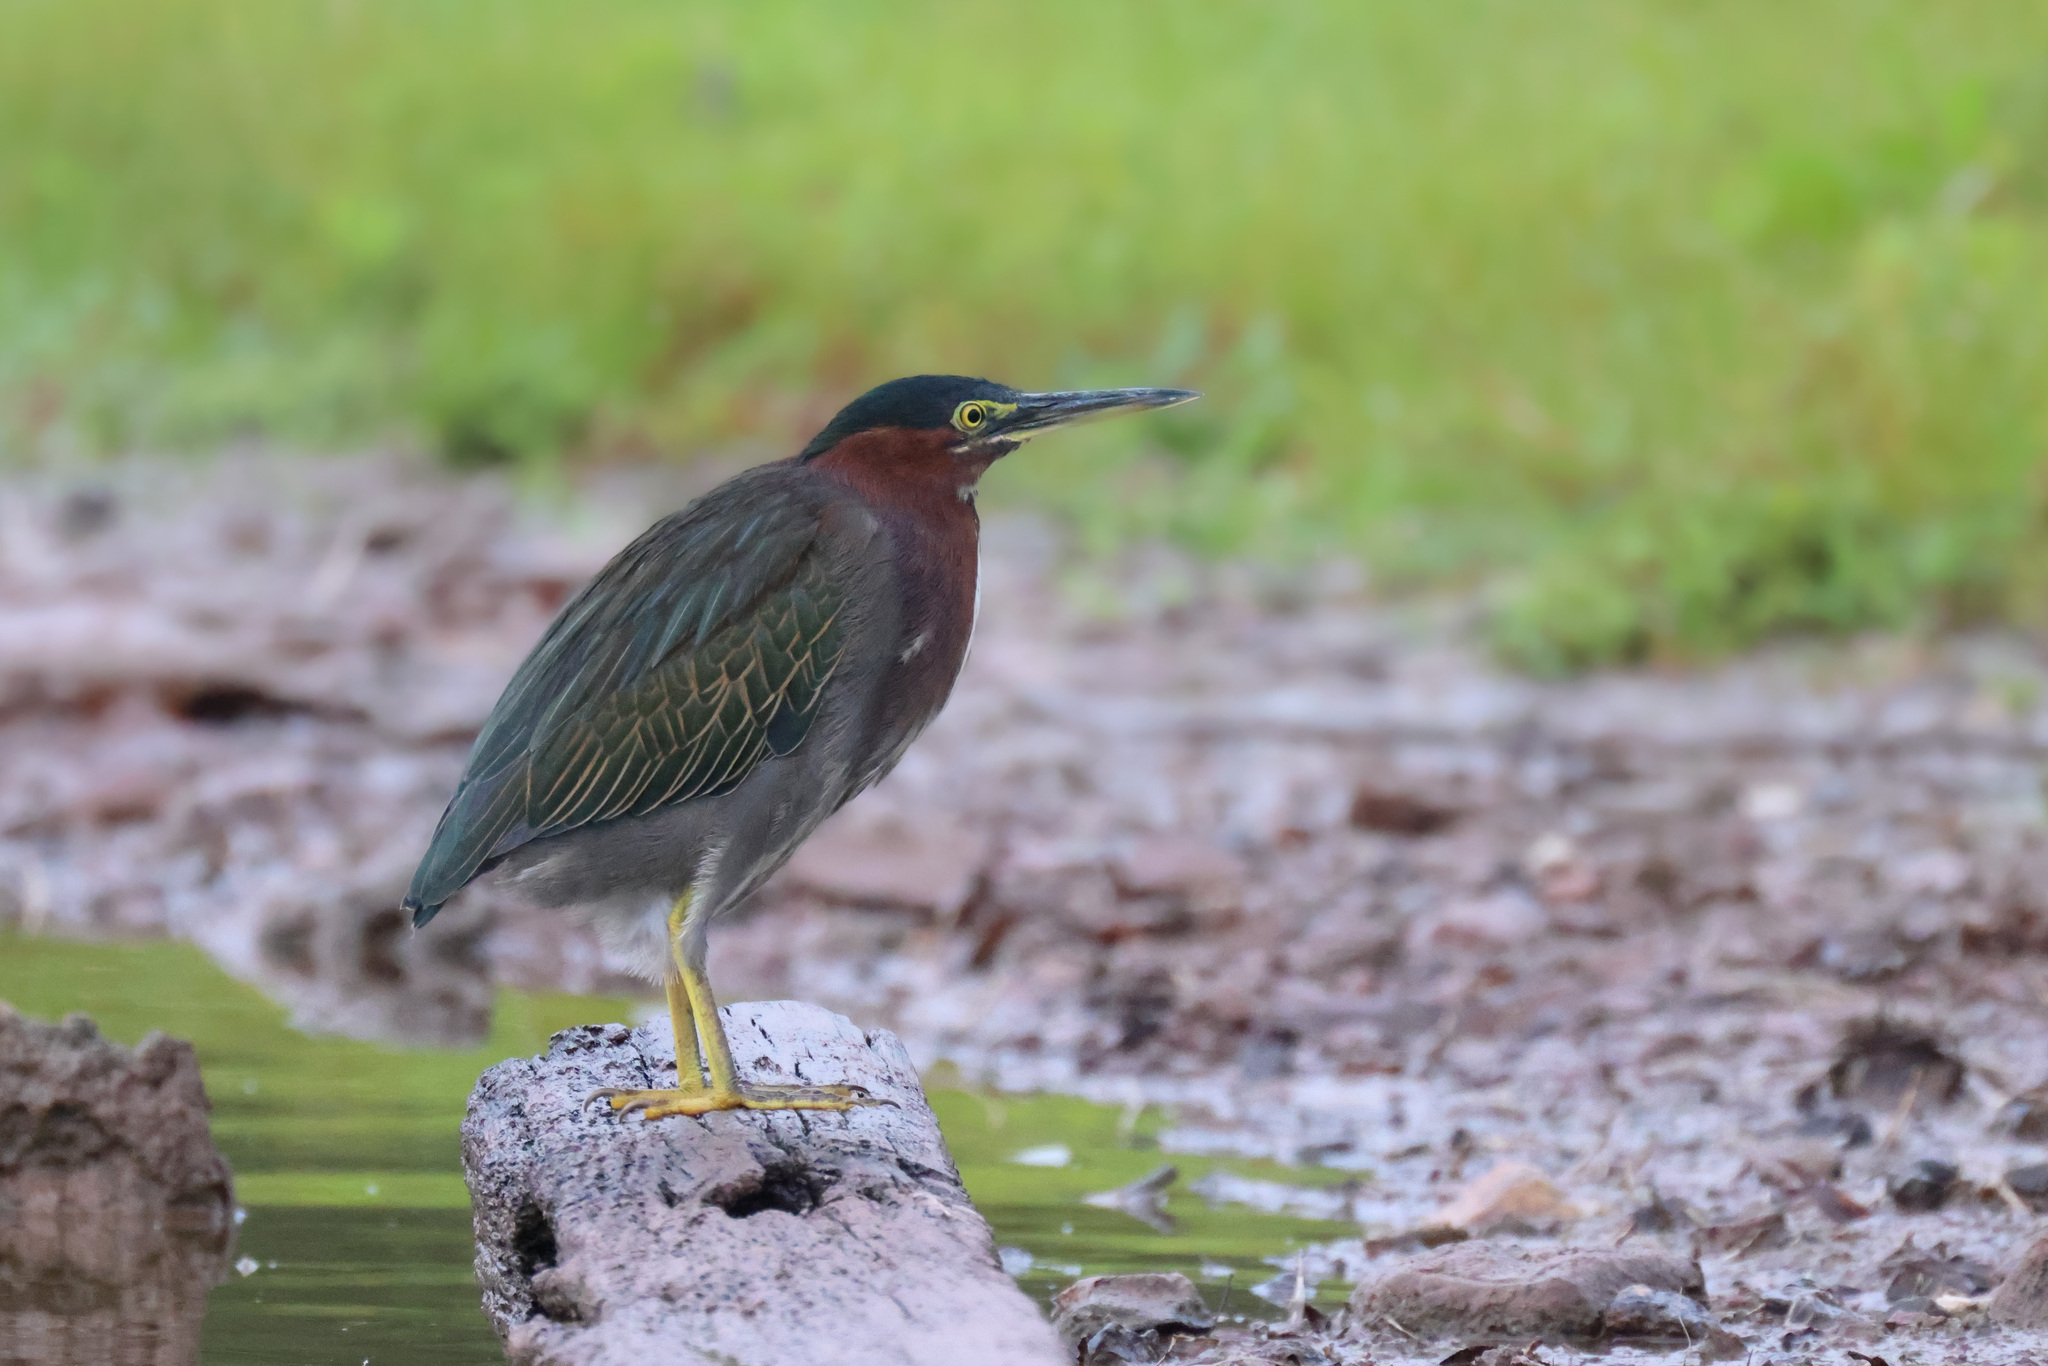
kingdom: Animalia
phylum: Chordata
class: Aves
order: Pelecaniformes
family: Ardeidae
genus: Butorides
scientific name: Butorides virescens
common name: Green heron
